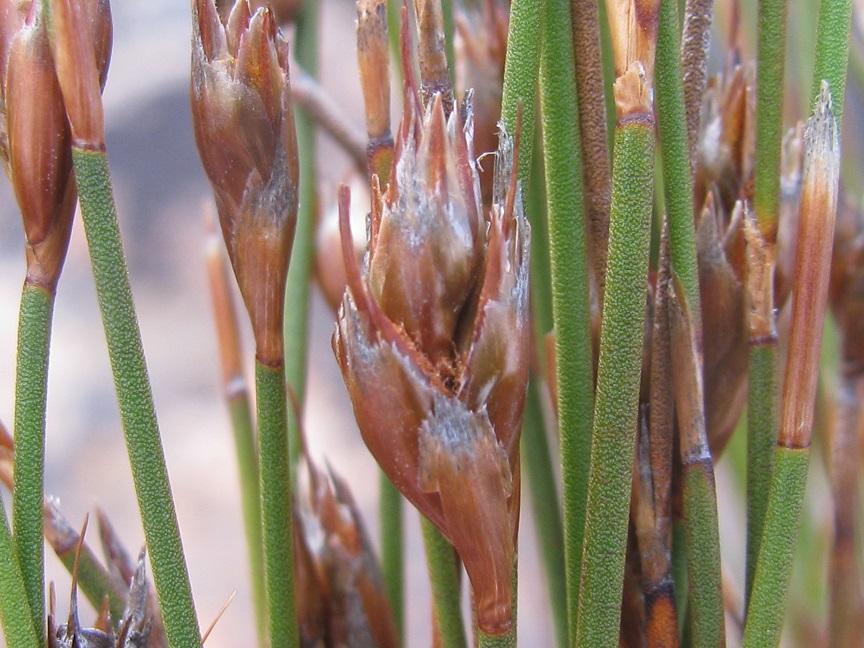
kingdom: Plantae
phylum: Tracheophyta
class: Liliopsida
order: Poales
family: Restionaceae
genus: Restio
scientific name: Restio gossypinus
